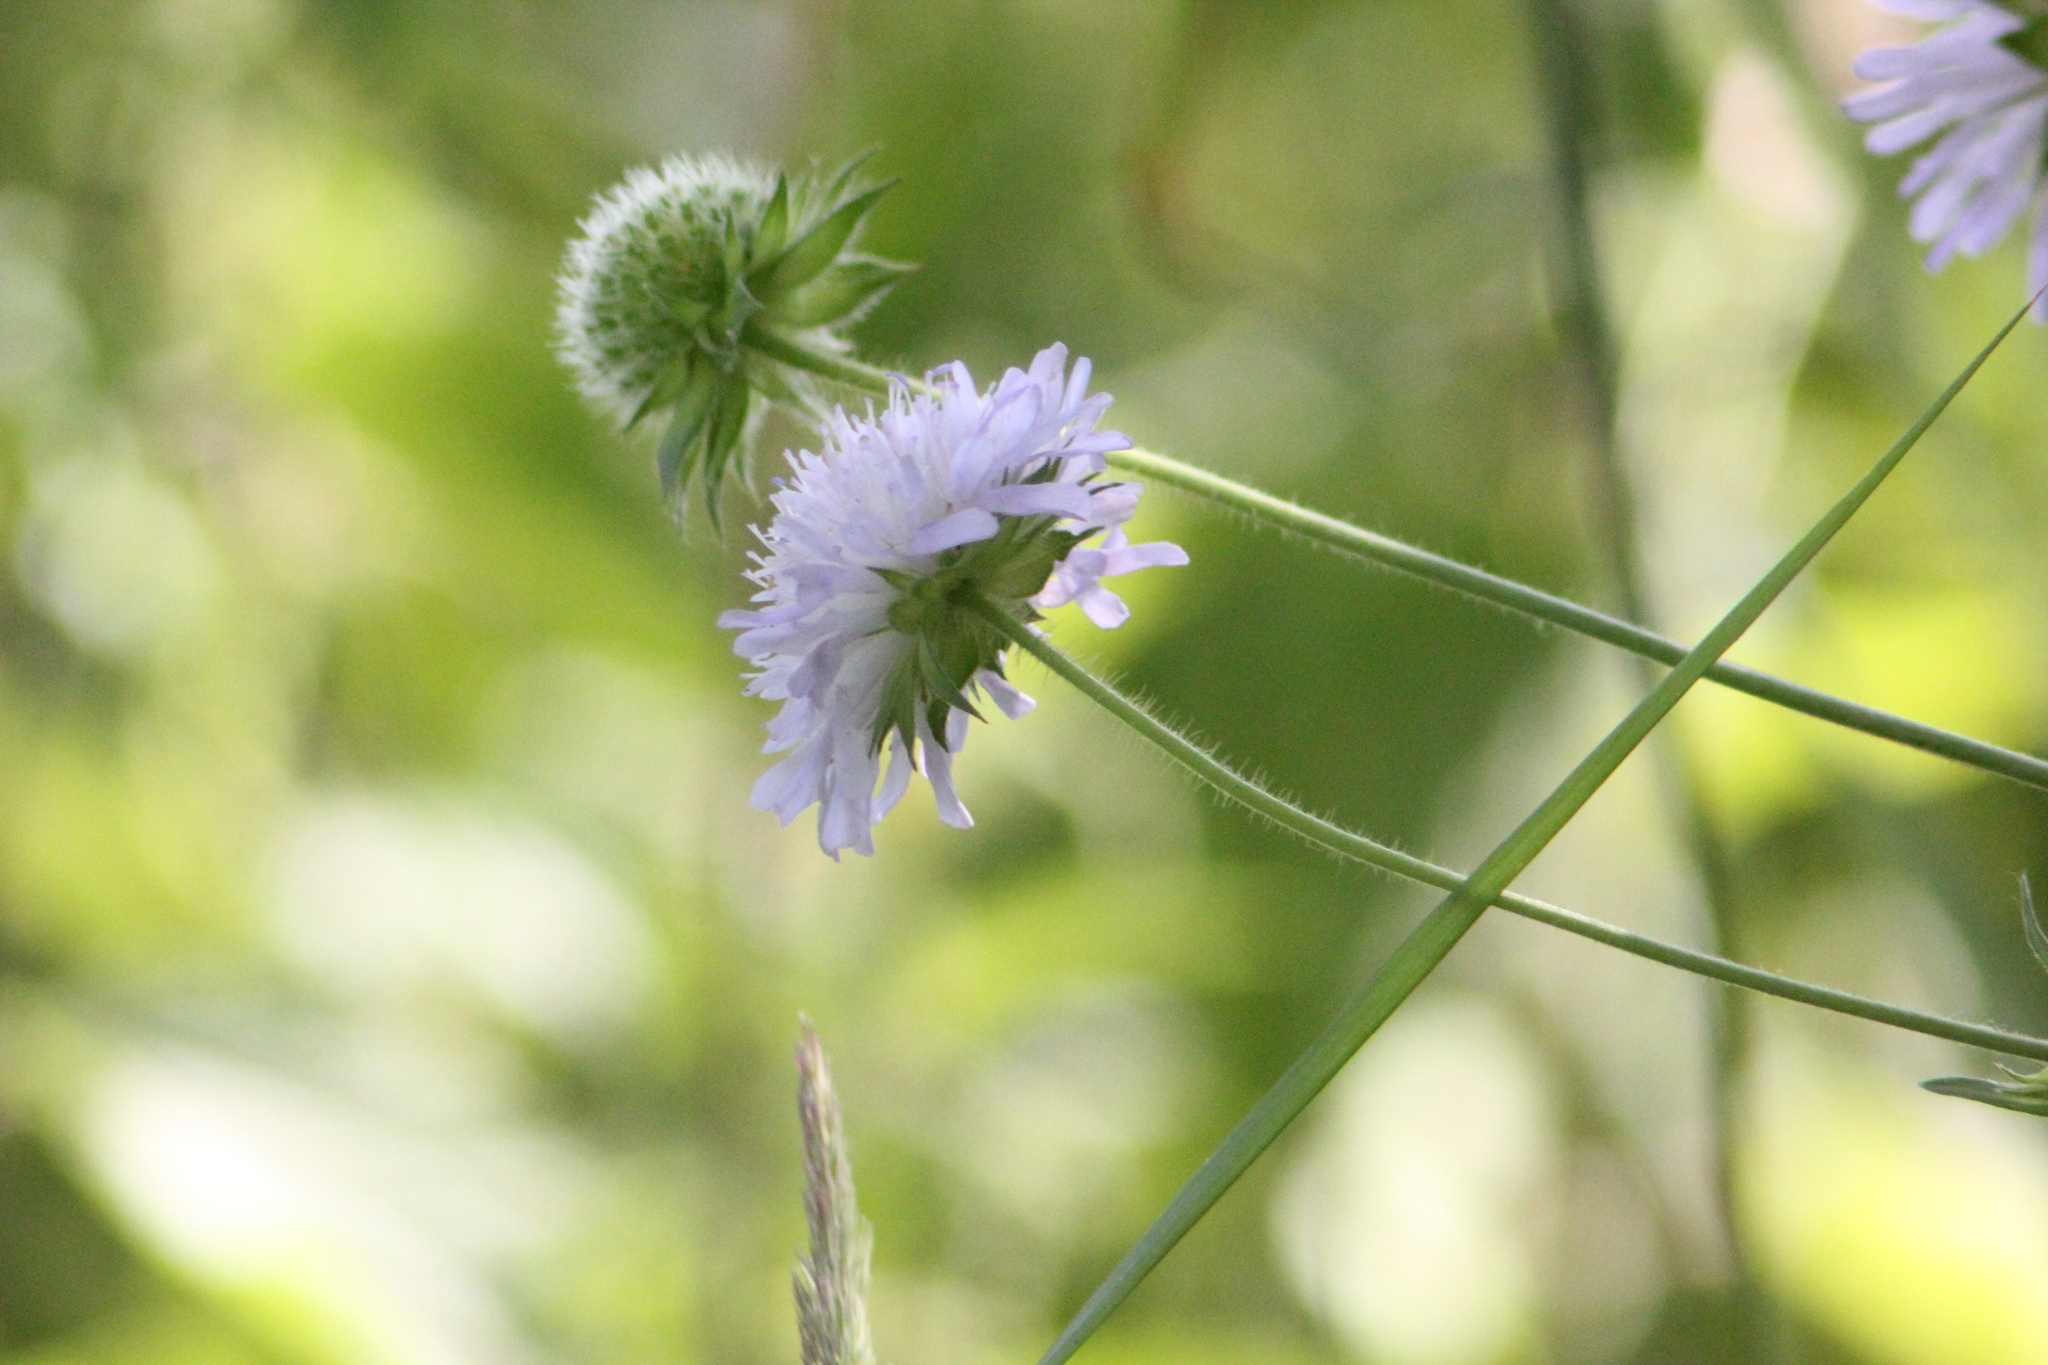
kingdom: Plantae
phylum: Tracheophyta
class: Magnoliopsida
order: Dipsacales
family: Caprifoliaceae
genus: Knautia
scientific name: Knautia arvensis
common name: Field scabiosa
